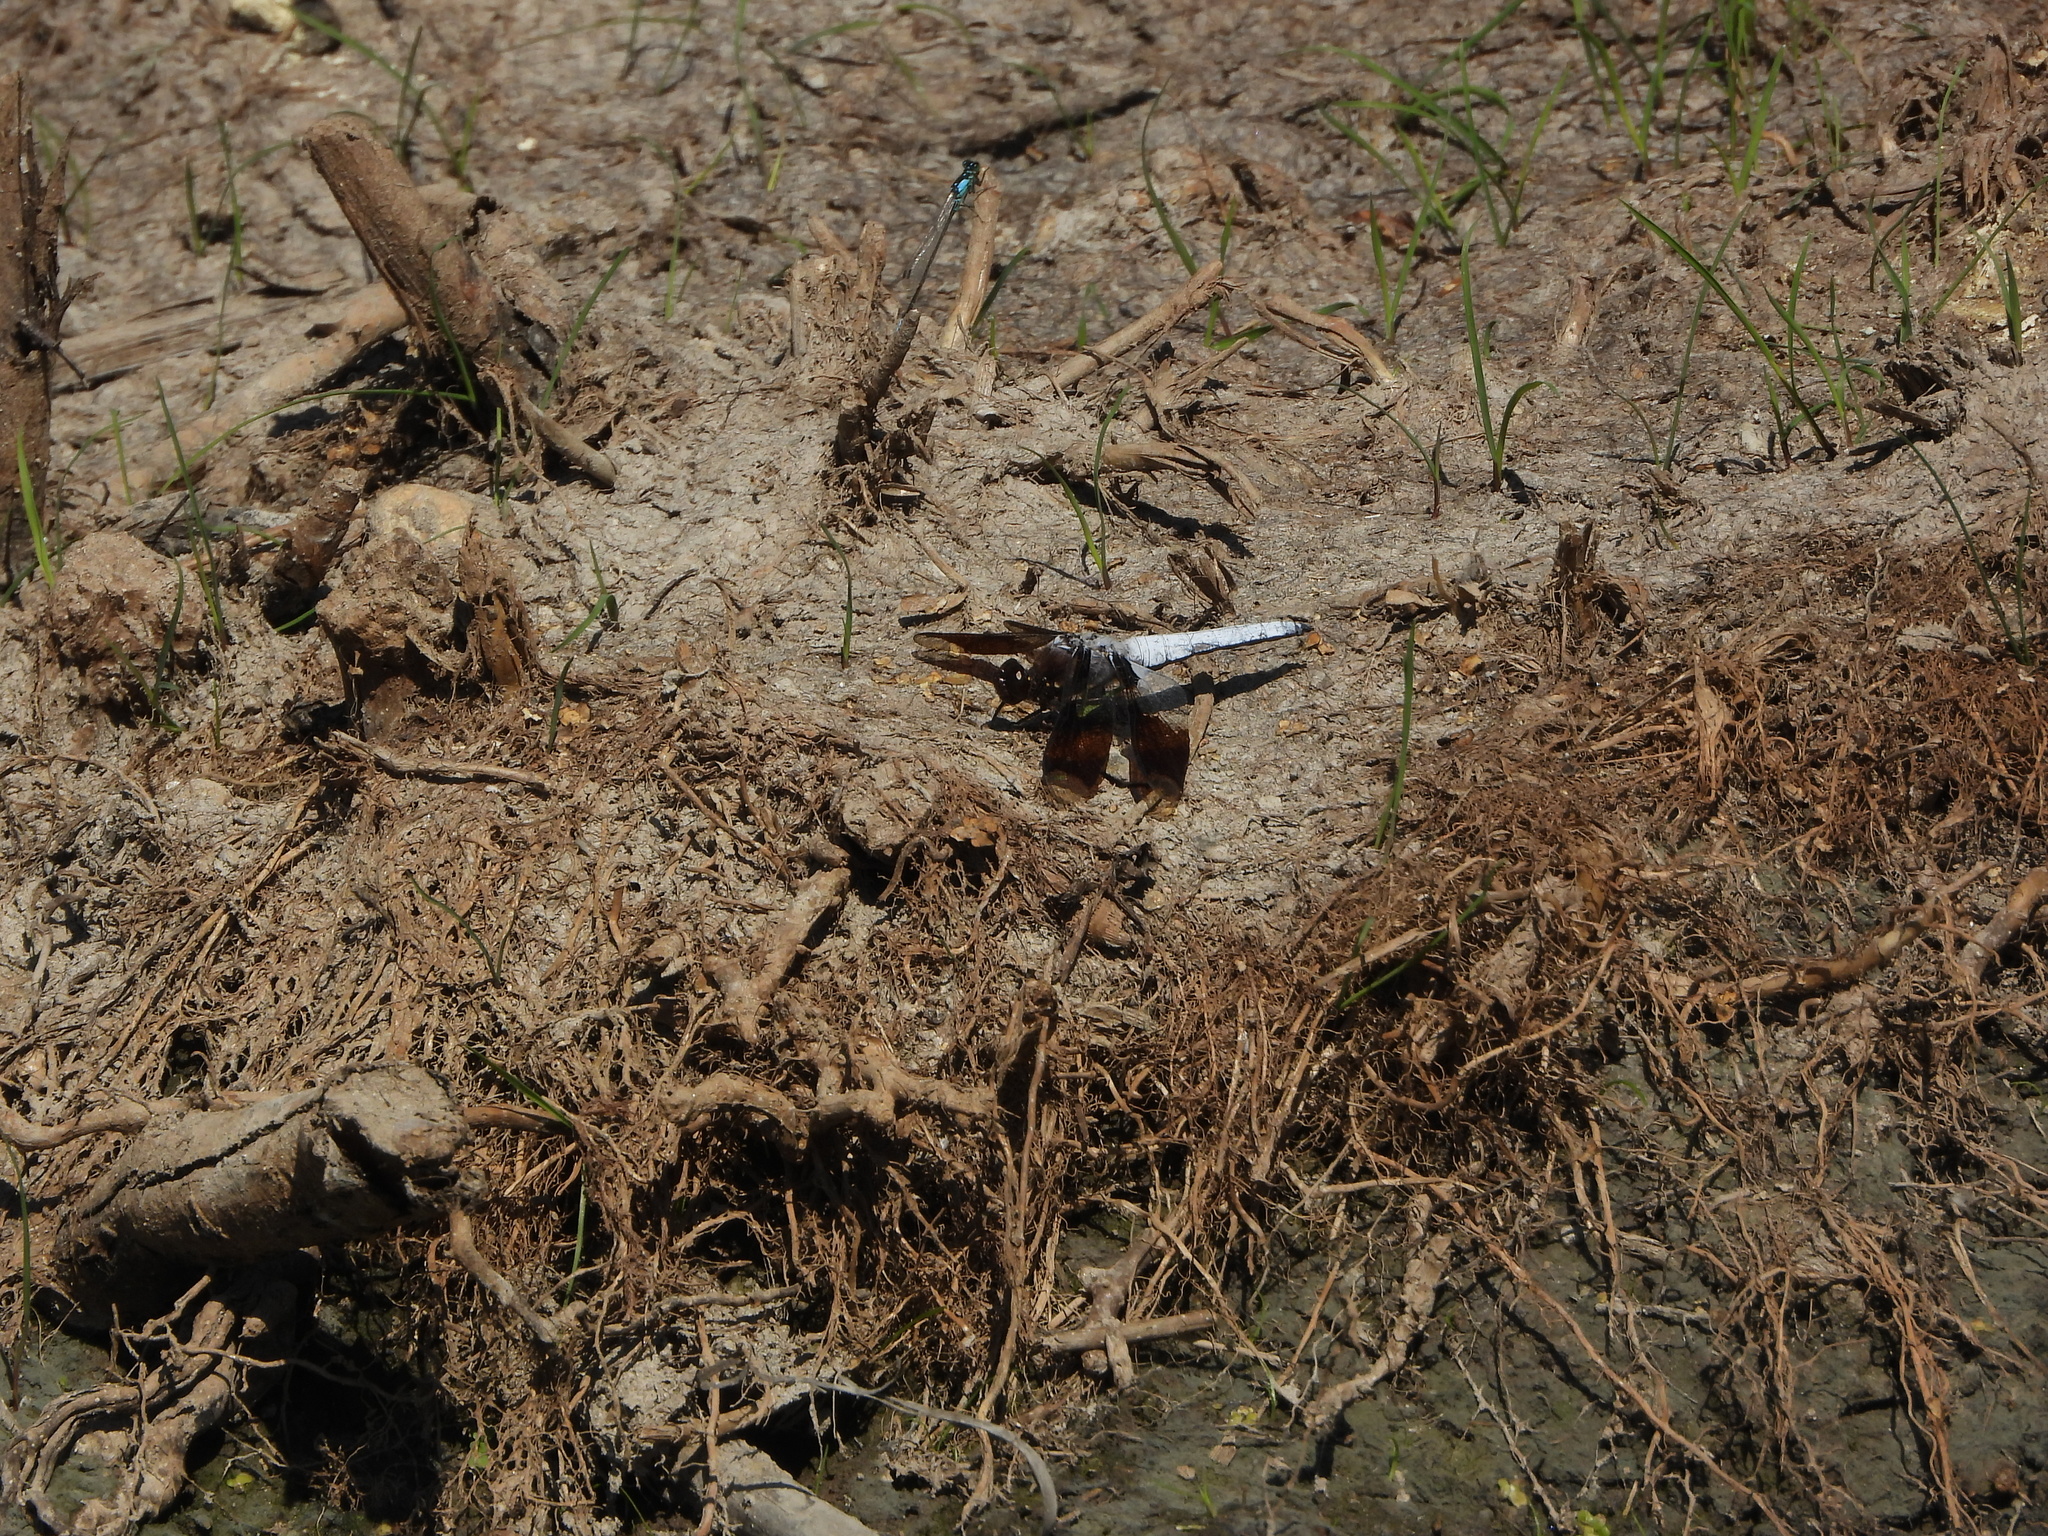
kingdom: Animalia
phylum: Arthropoda
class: Insecta
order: Odonata
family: Libellulidae
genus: Plathemis
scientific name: Plathemis lydia
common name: Common whitetail
